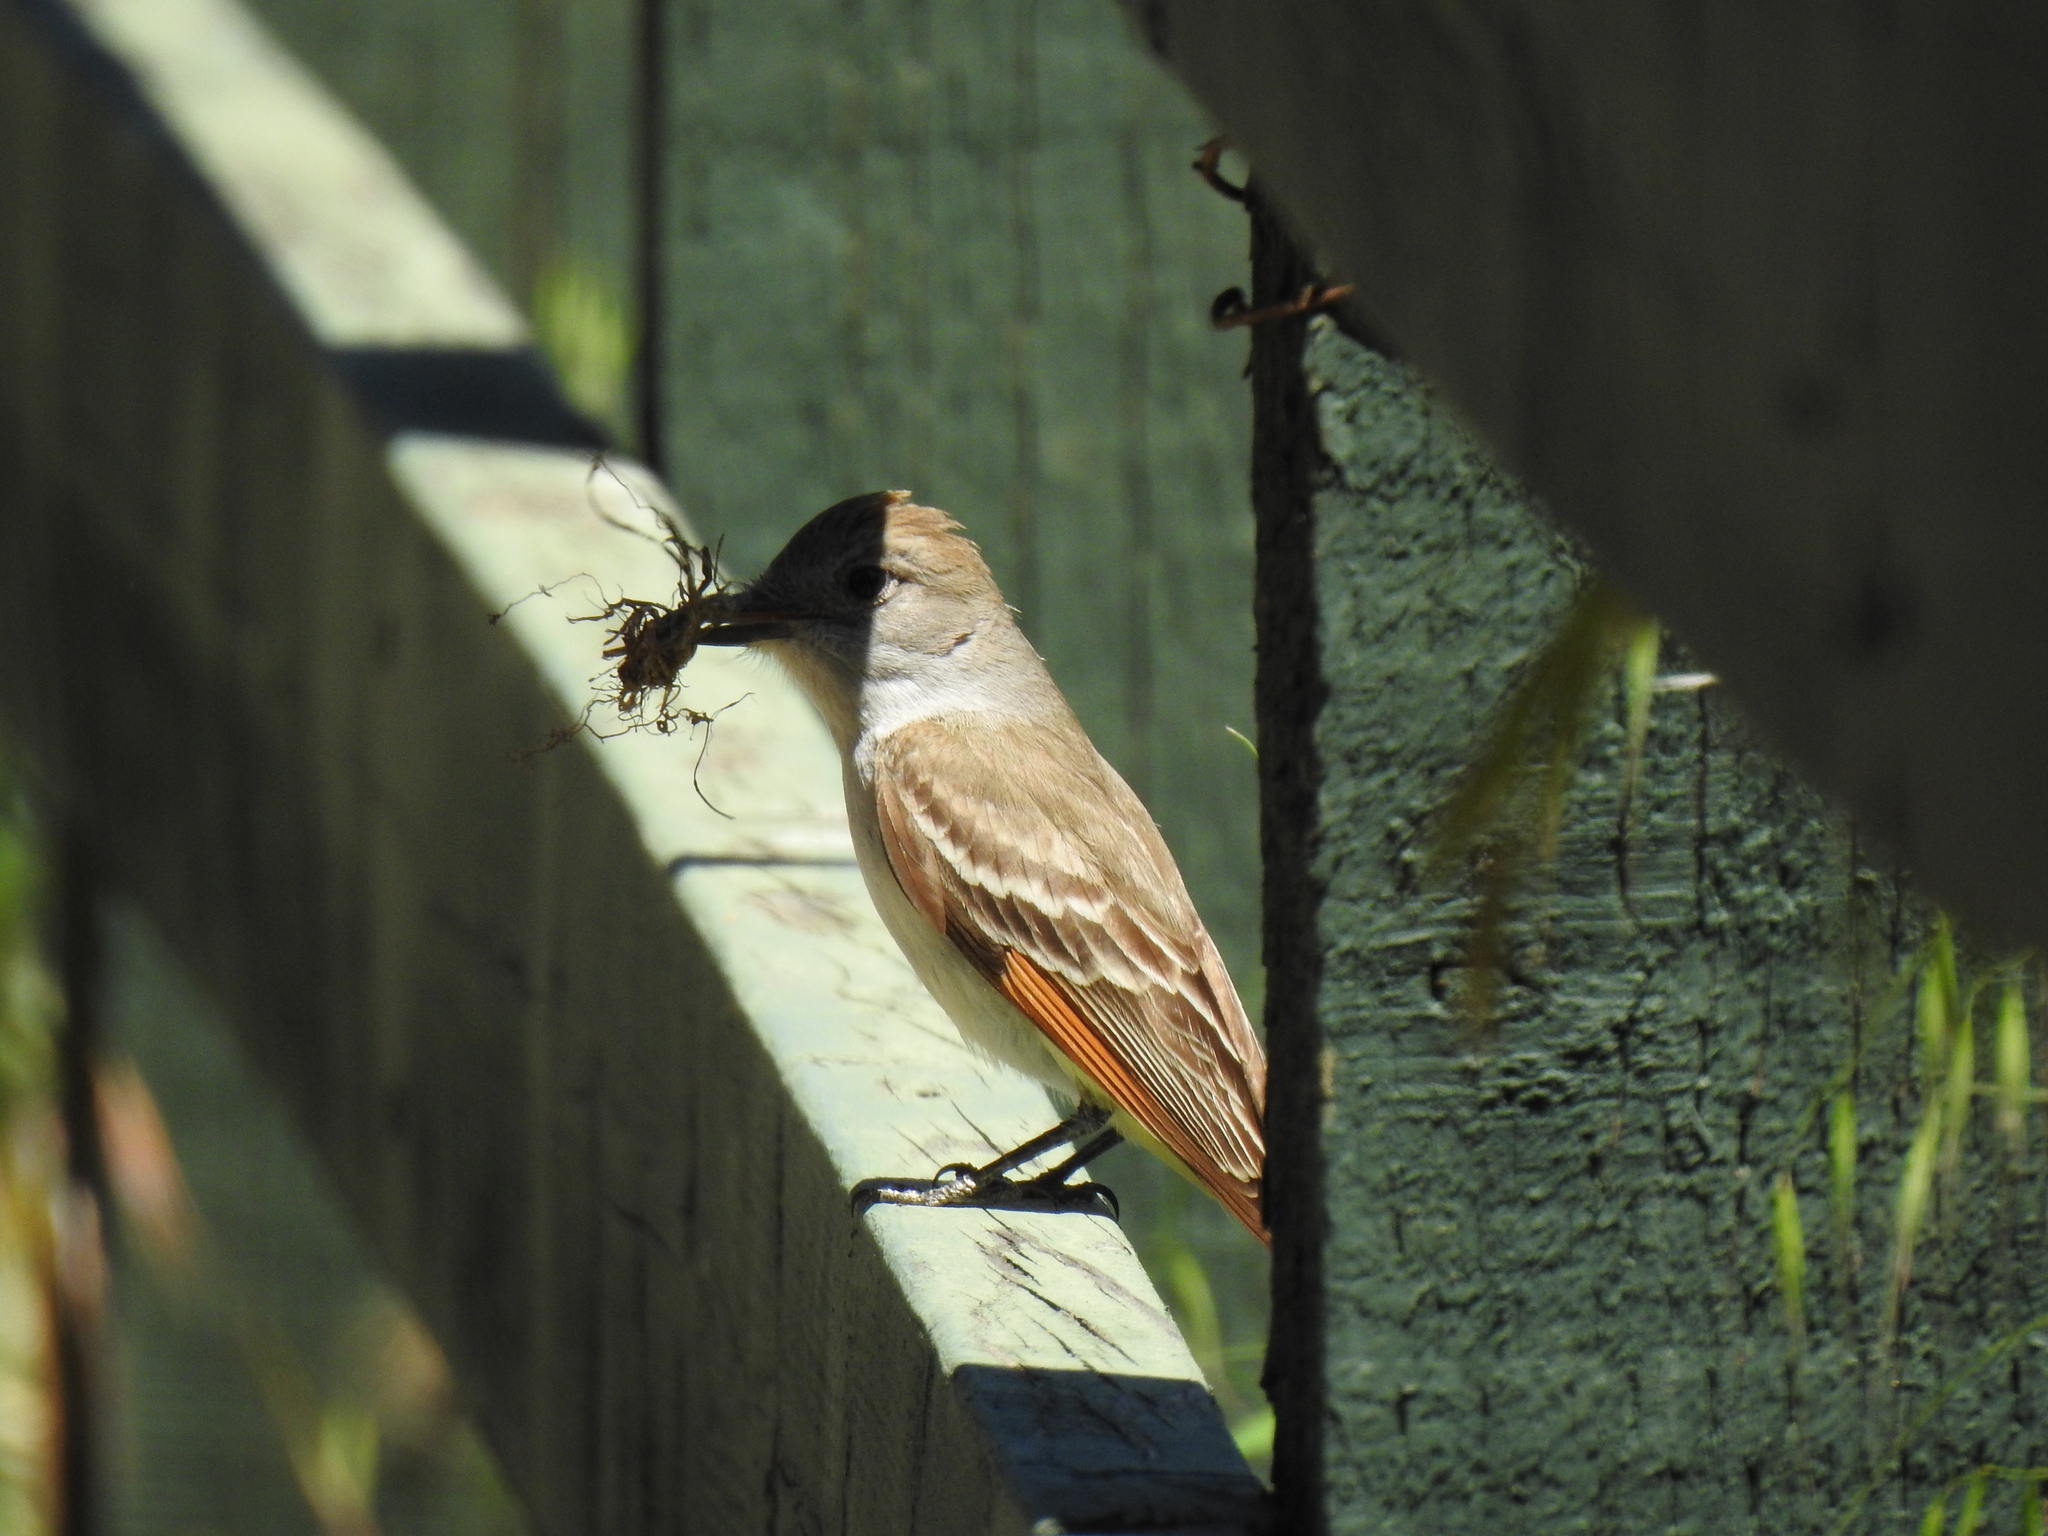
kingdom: Animalia
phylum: Chordata
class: Aves
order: Passeriformes
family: Tyrannidae
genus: Myiarchus
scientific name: Myiarchus cinerascens
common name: Ash-throated flycatcher
